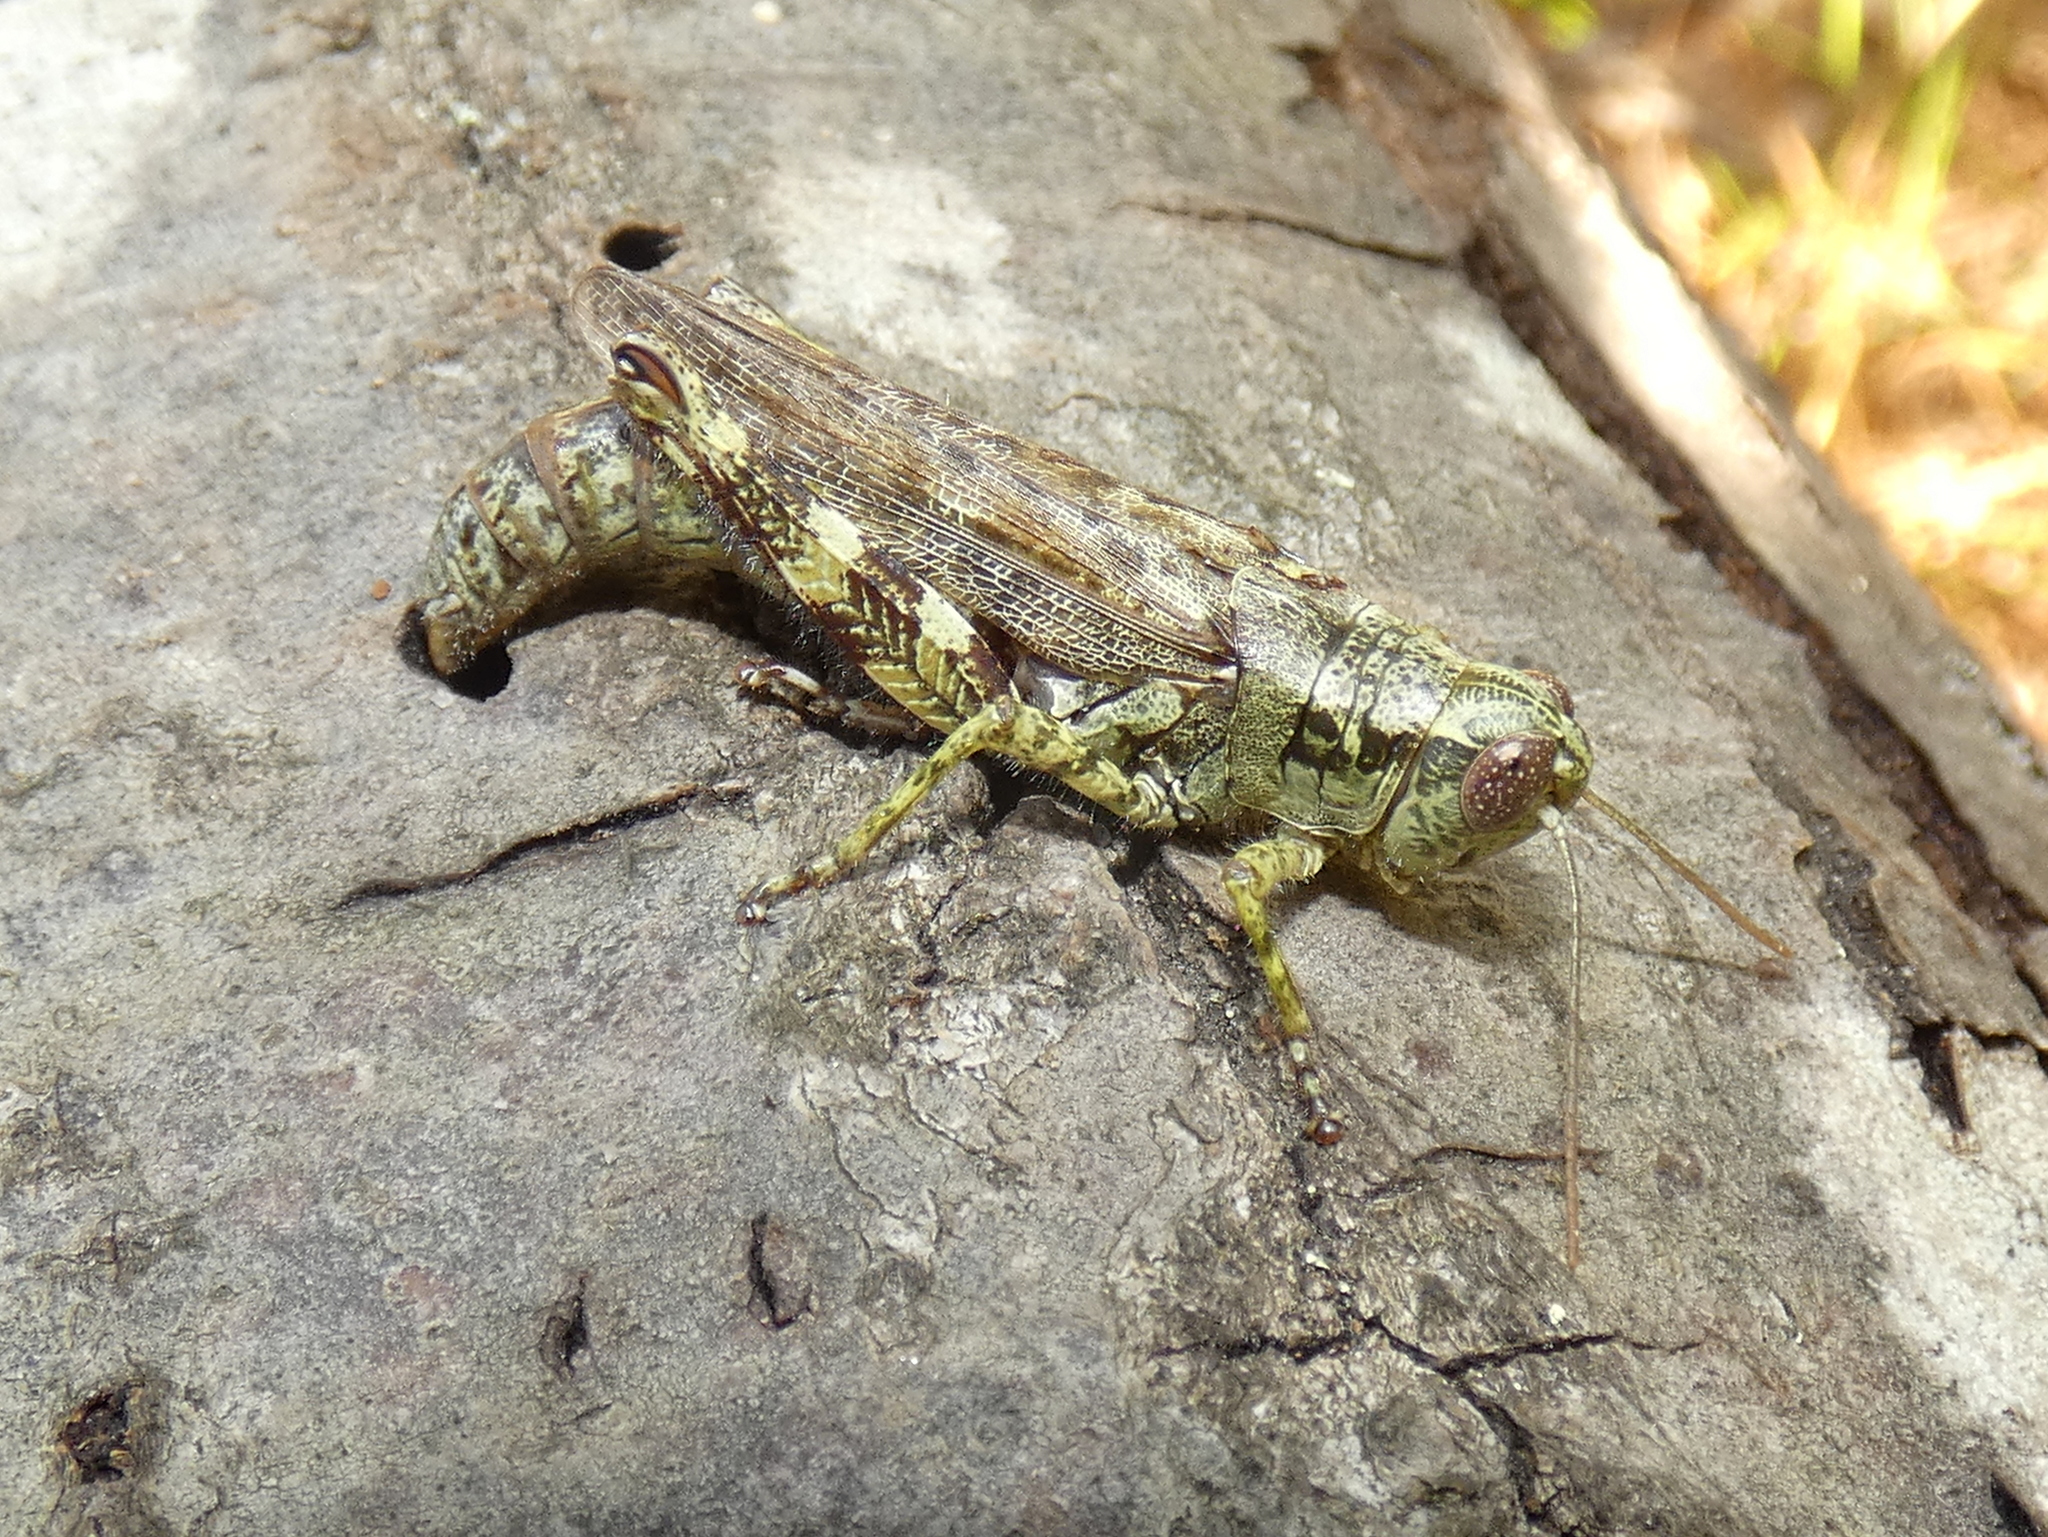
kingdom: Animalia
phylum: Arthropoda
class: Insecta
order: Orthoptera
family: Acrididae
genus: Melanoplus
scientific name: Melanoplus punctulatus
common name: Pine-tree spur-throat grasshopper
